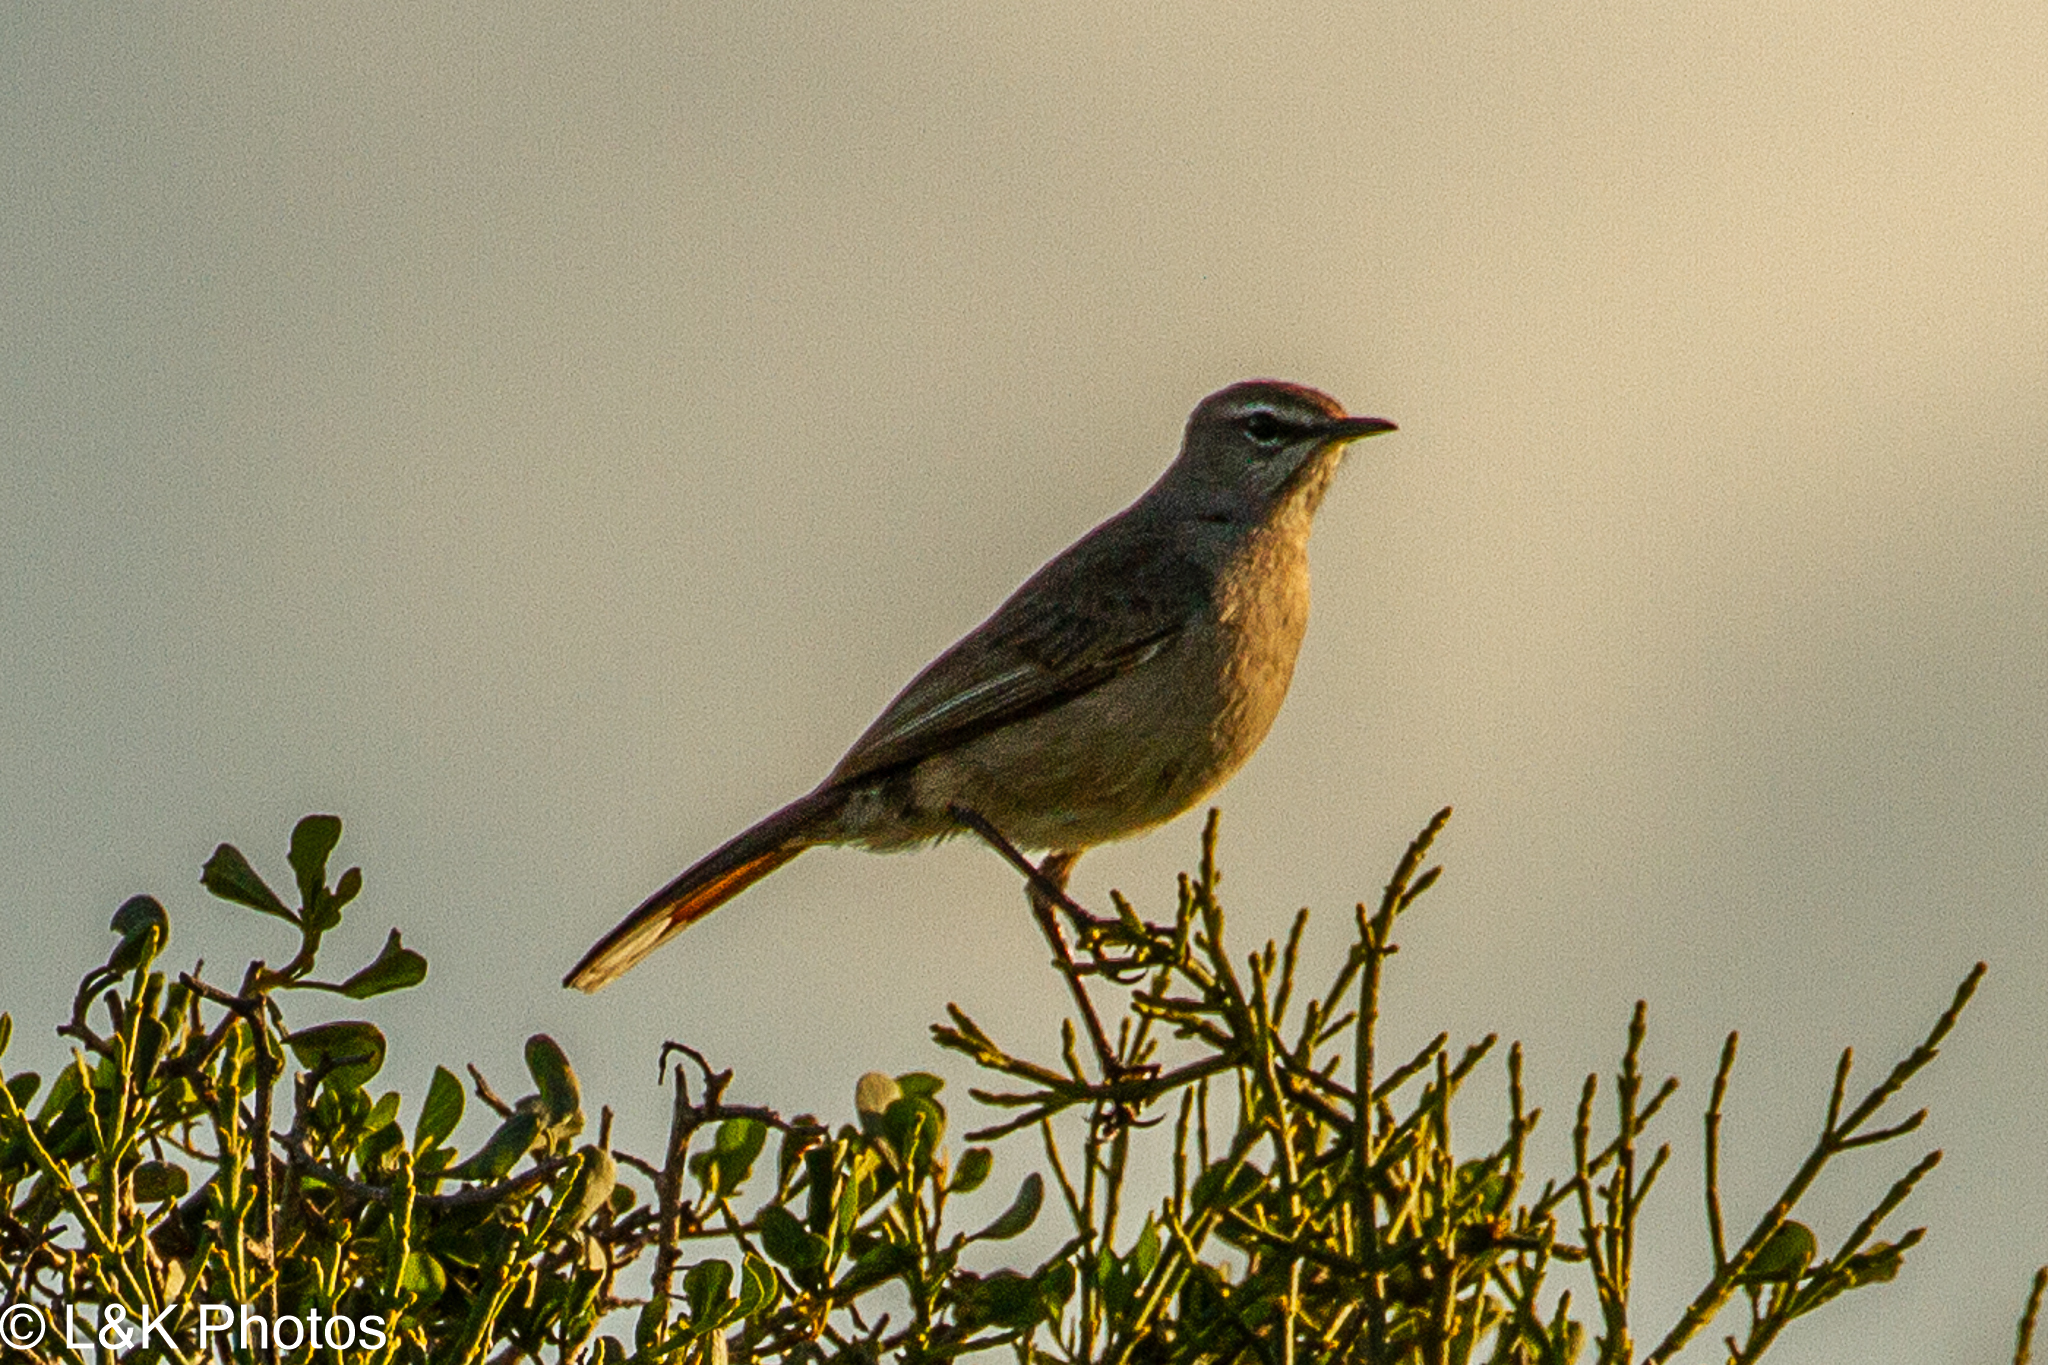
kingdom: Animalia
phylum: Chordata
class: Aves
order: Passeriformes
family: Muscicapidae
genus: Erythropygia
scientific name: Erythropygia coryphoeus
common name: Karoo scrub robin
